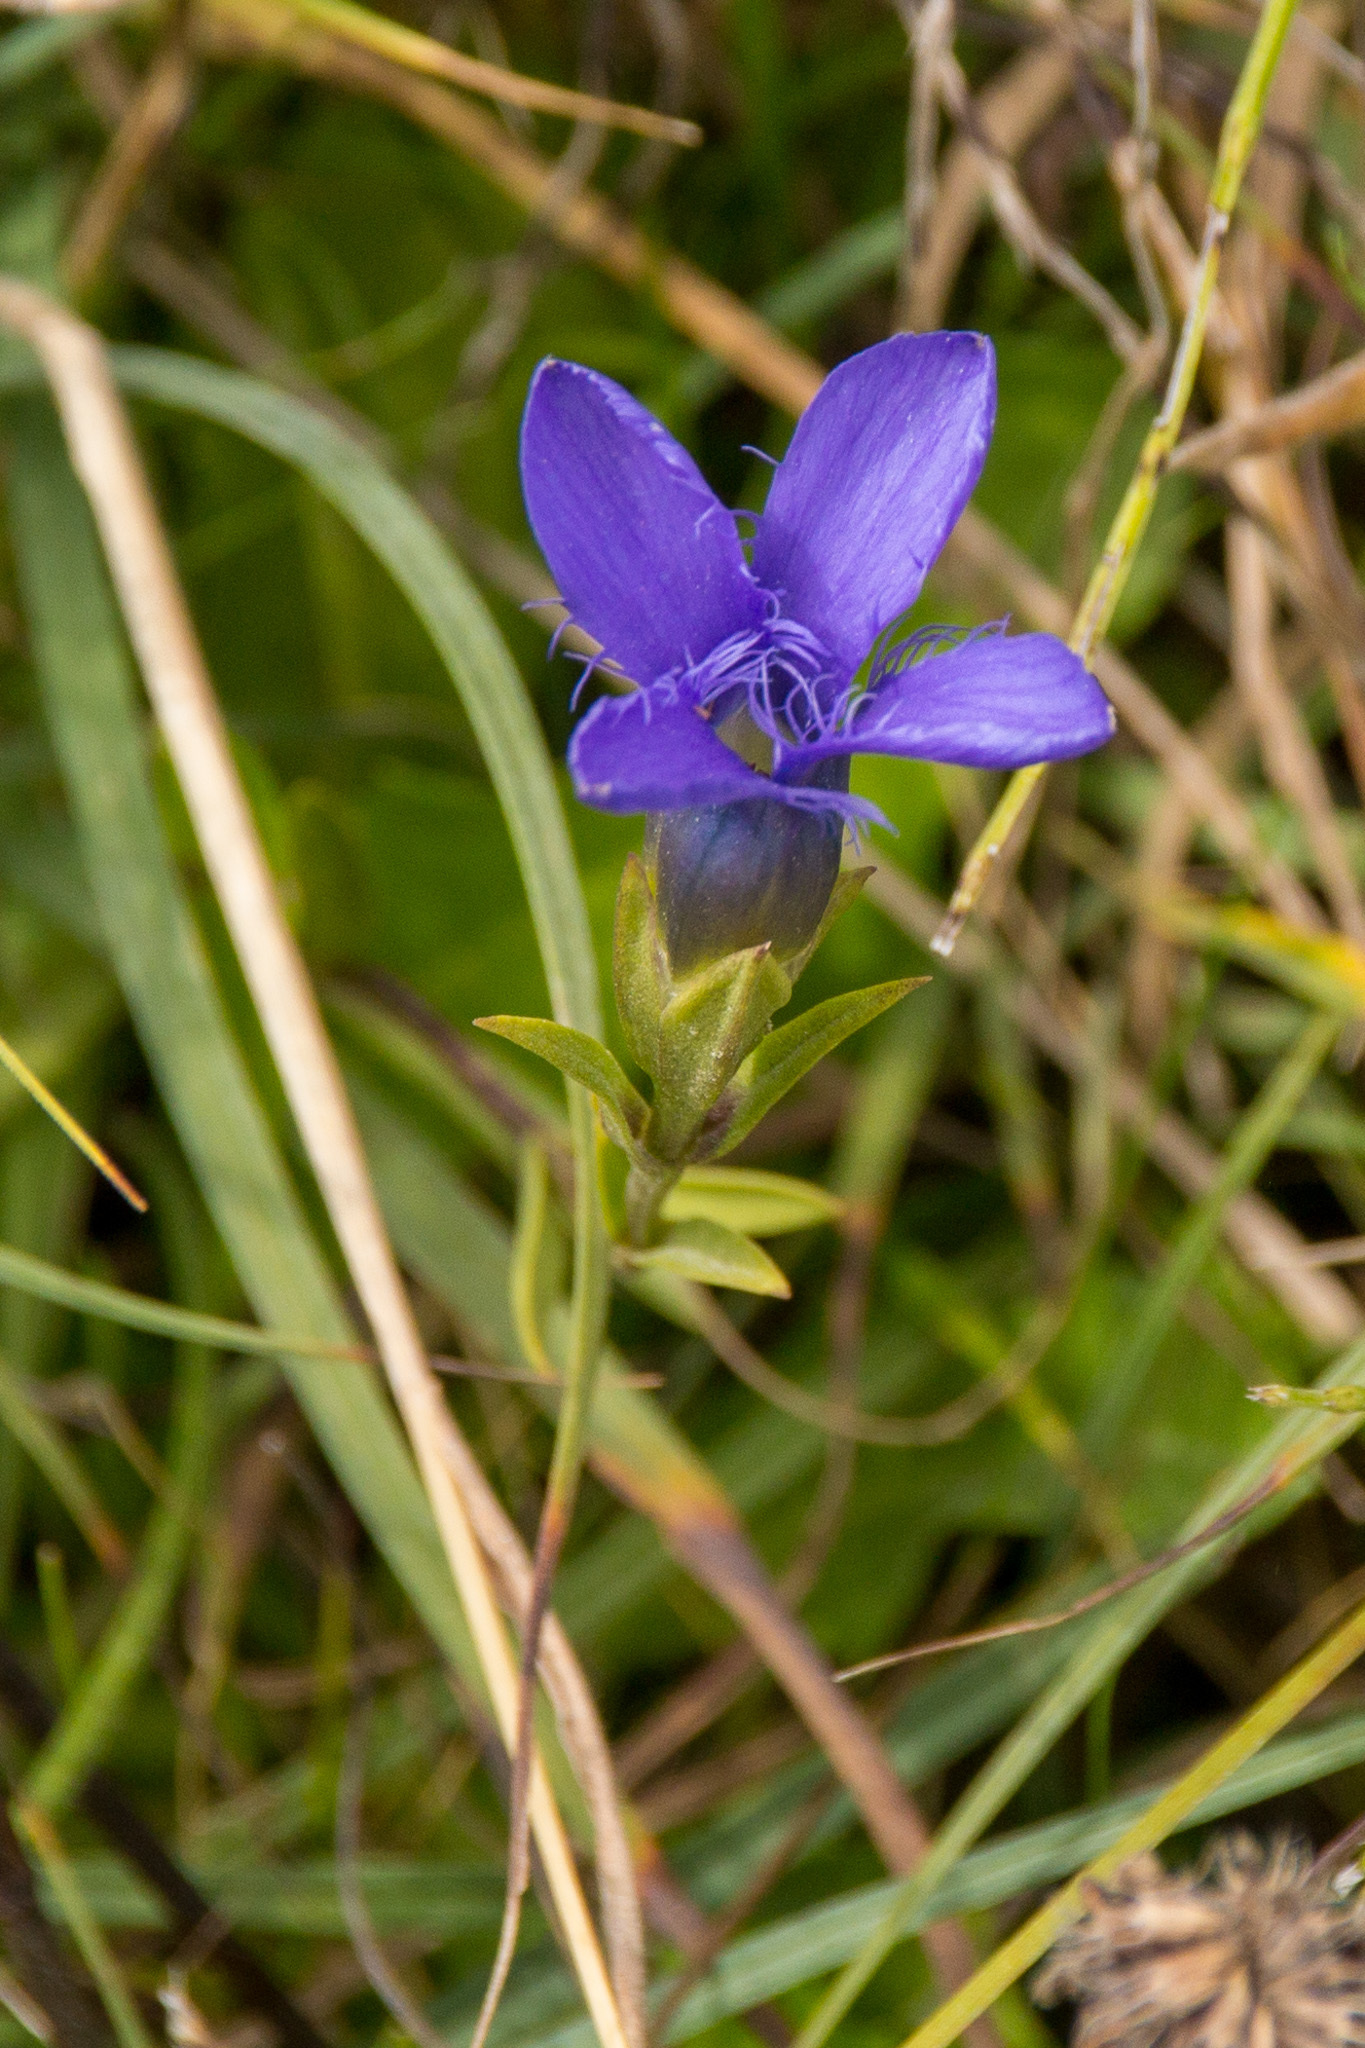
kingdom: Plantae
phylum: Tracheophyta
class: Magnoliopsida
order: Gentianales
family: Gentianaceae
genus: Gentianopsis
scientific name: Gentianopsis ciliata
